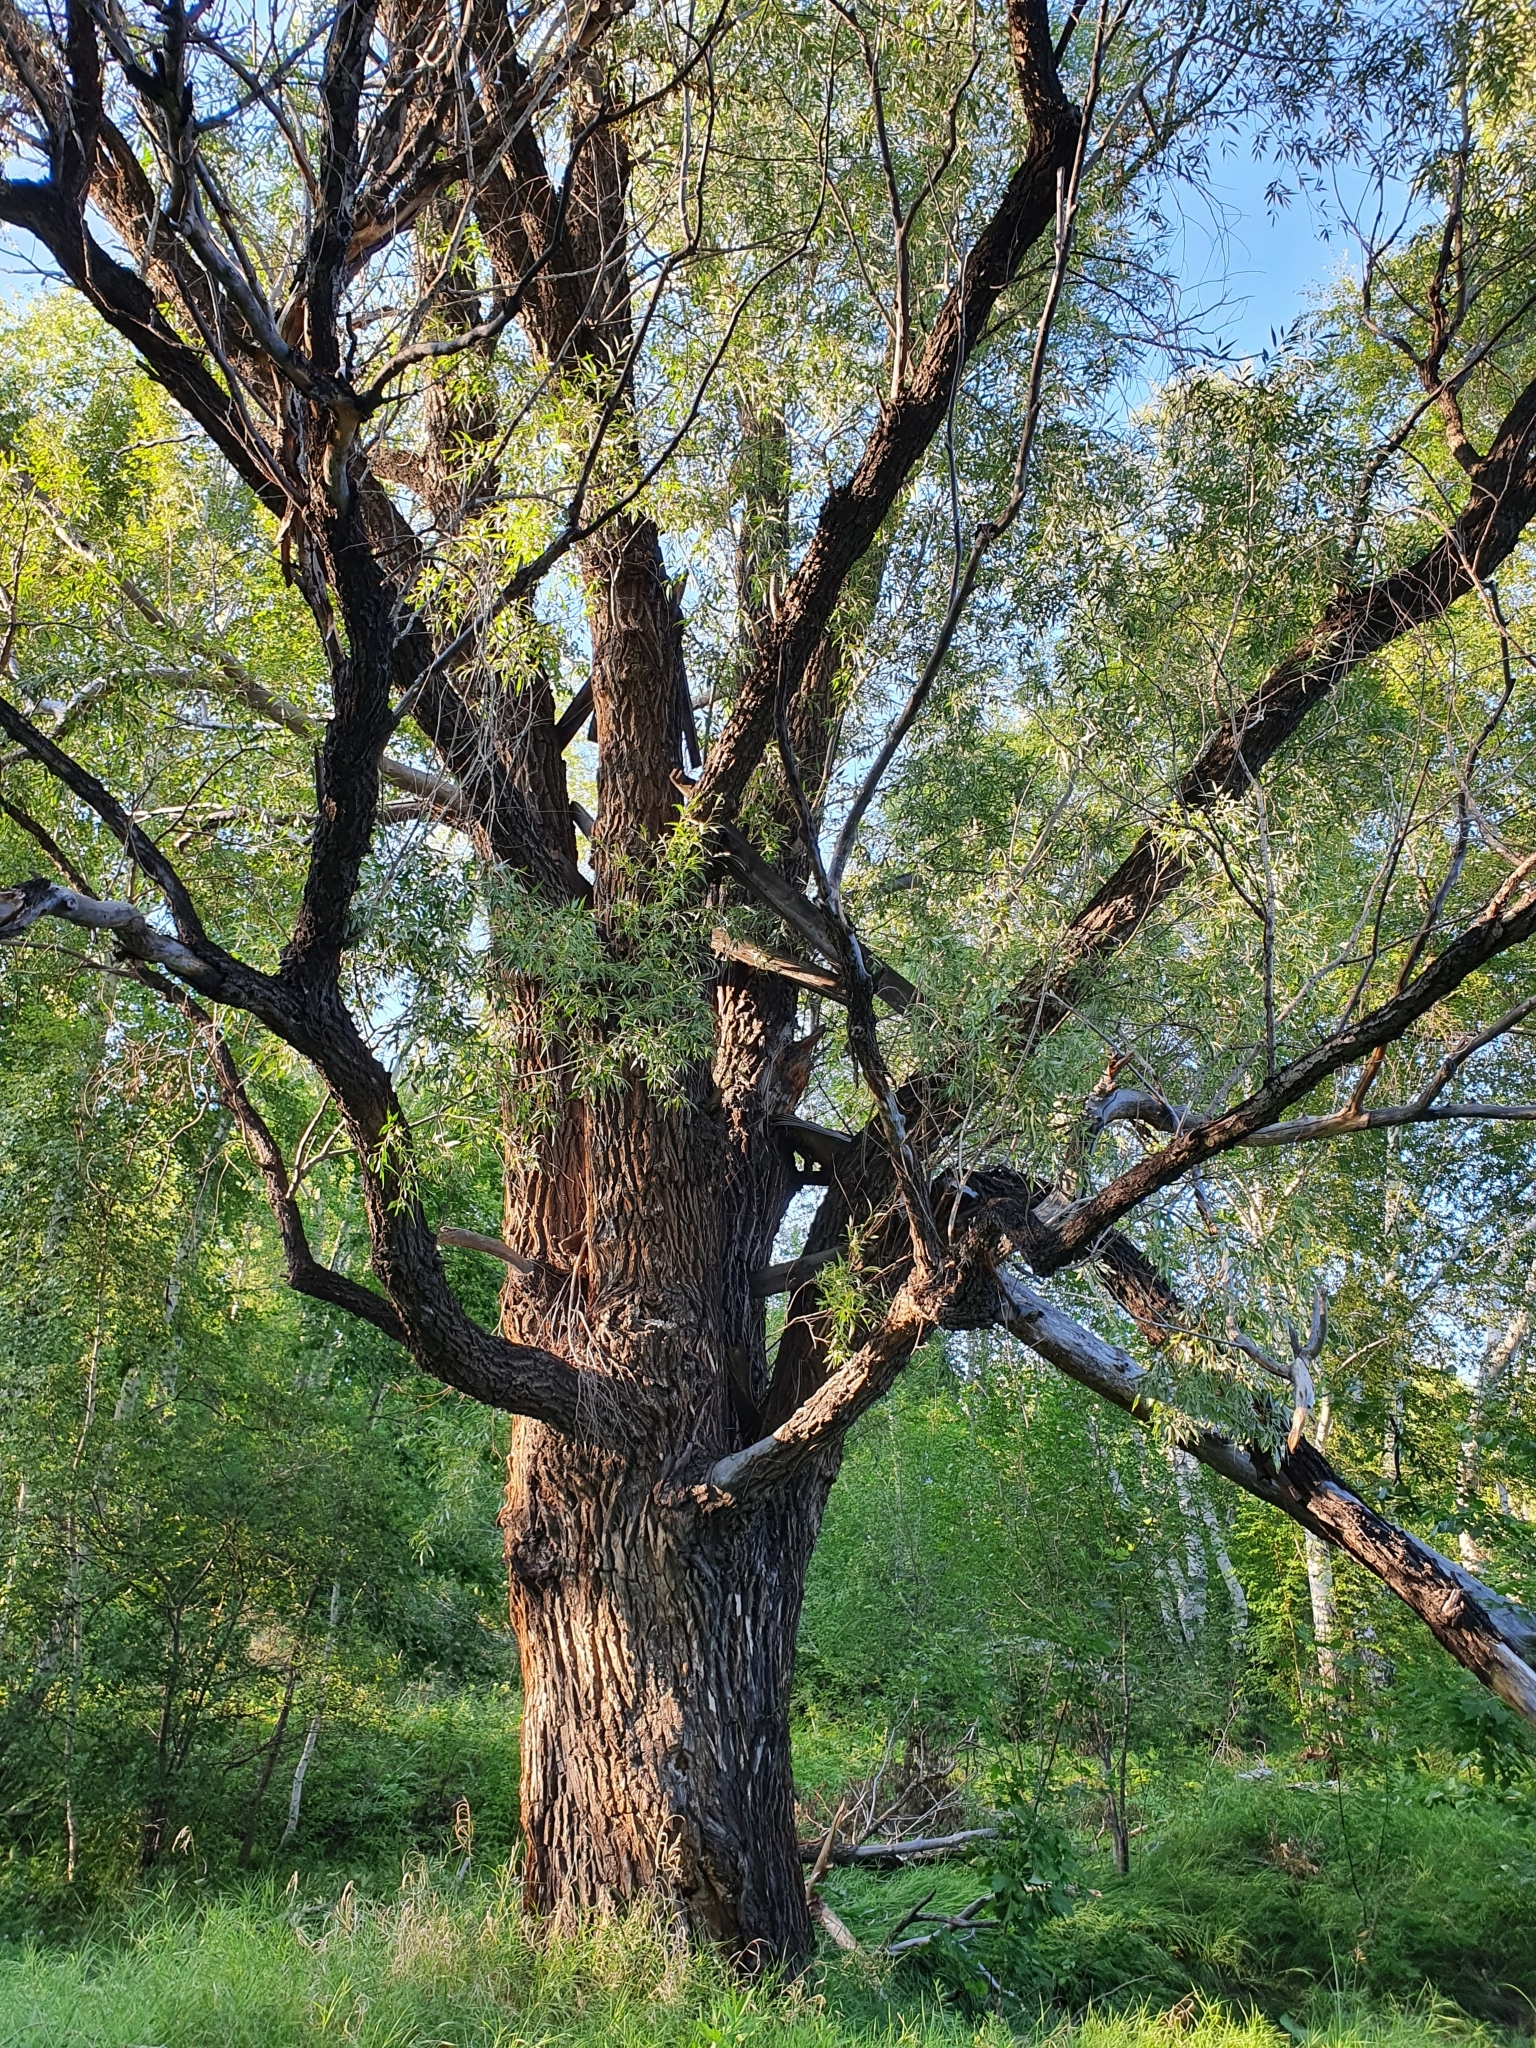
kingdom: Plantae
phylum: Tracheophyta
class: Magnoliopsida
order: Malpighiales
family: Salicaceae
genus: Salix
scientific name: Salix alba
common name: White willow
